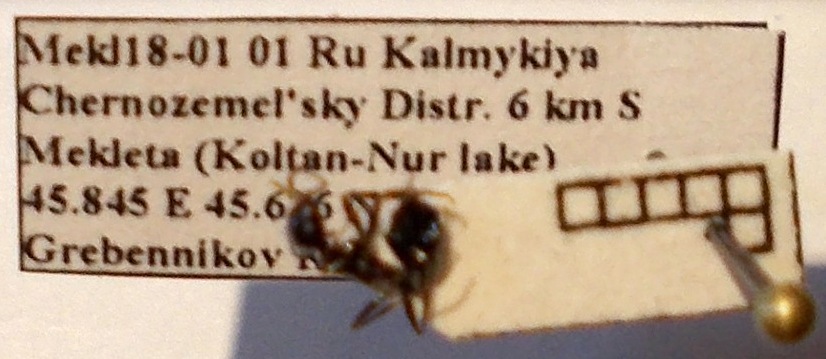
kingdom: Animalia
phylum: Arthropoda
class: Insecta
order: Hymenoptera
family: Formicidae
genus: Messor
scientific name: Messor denticulatus
